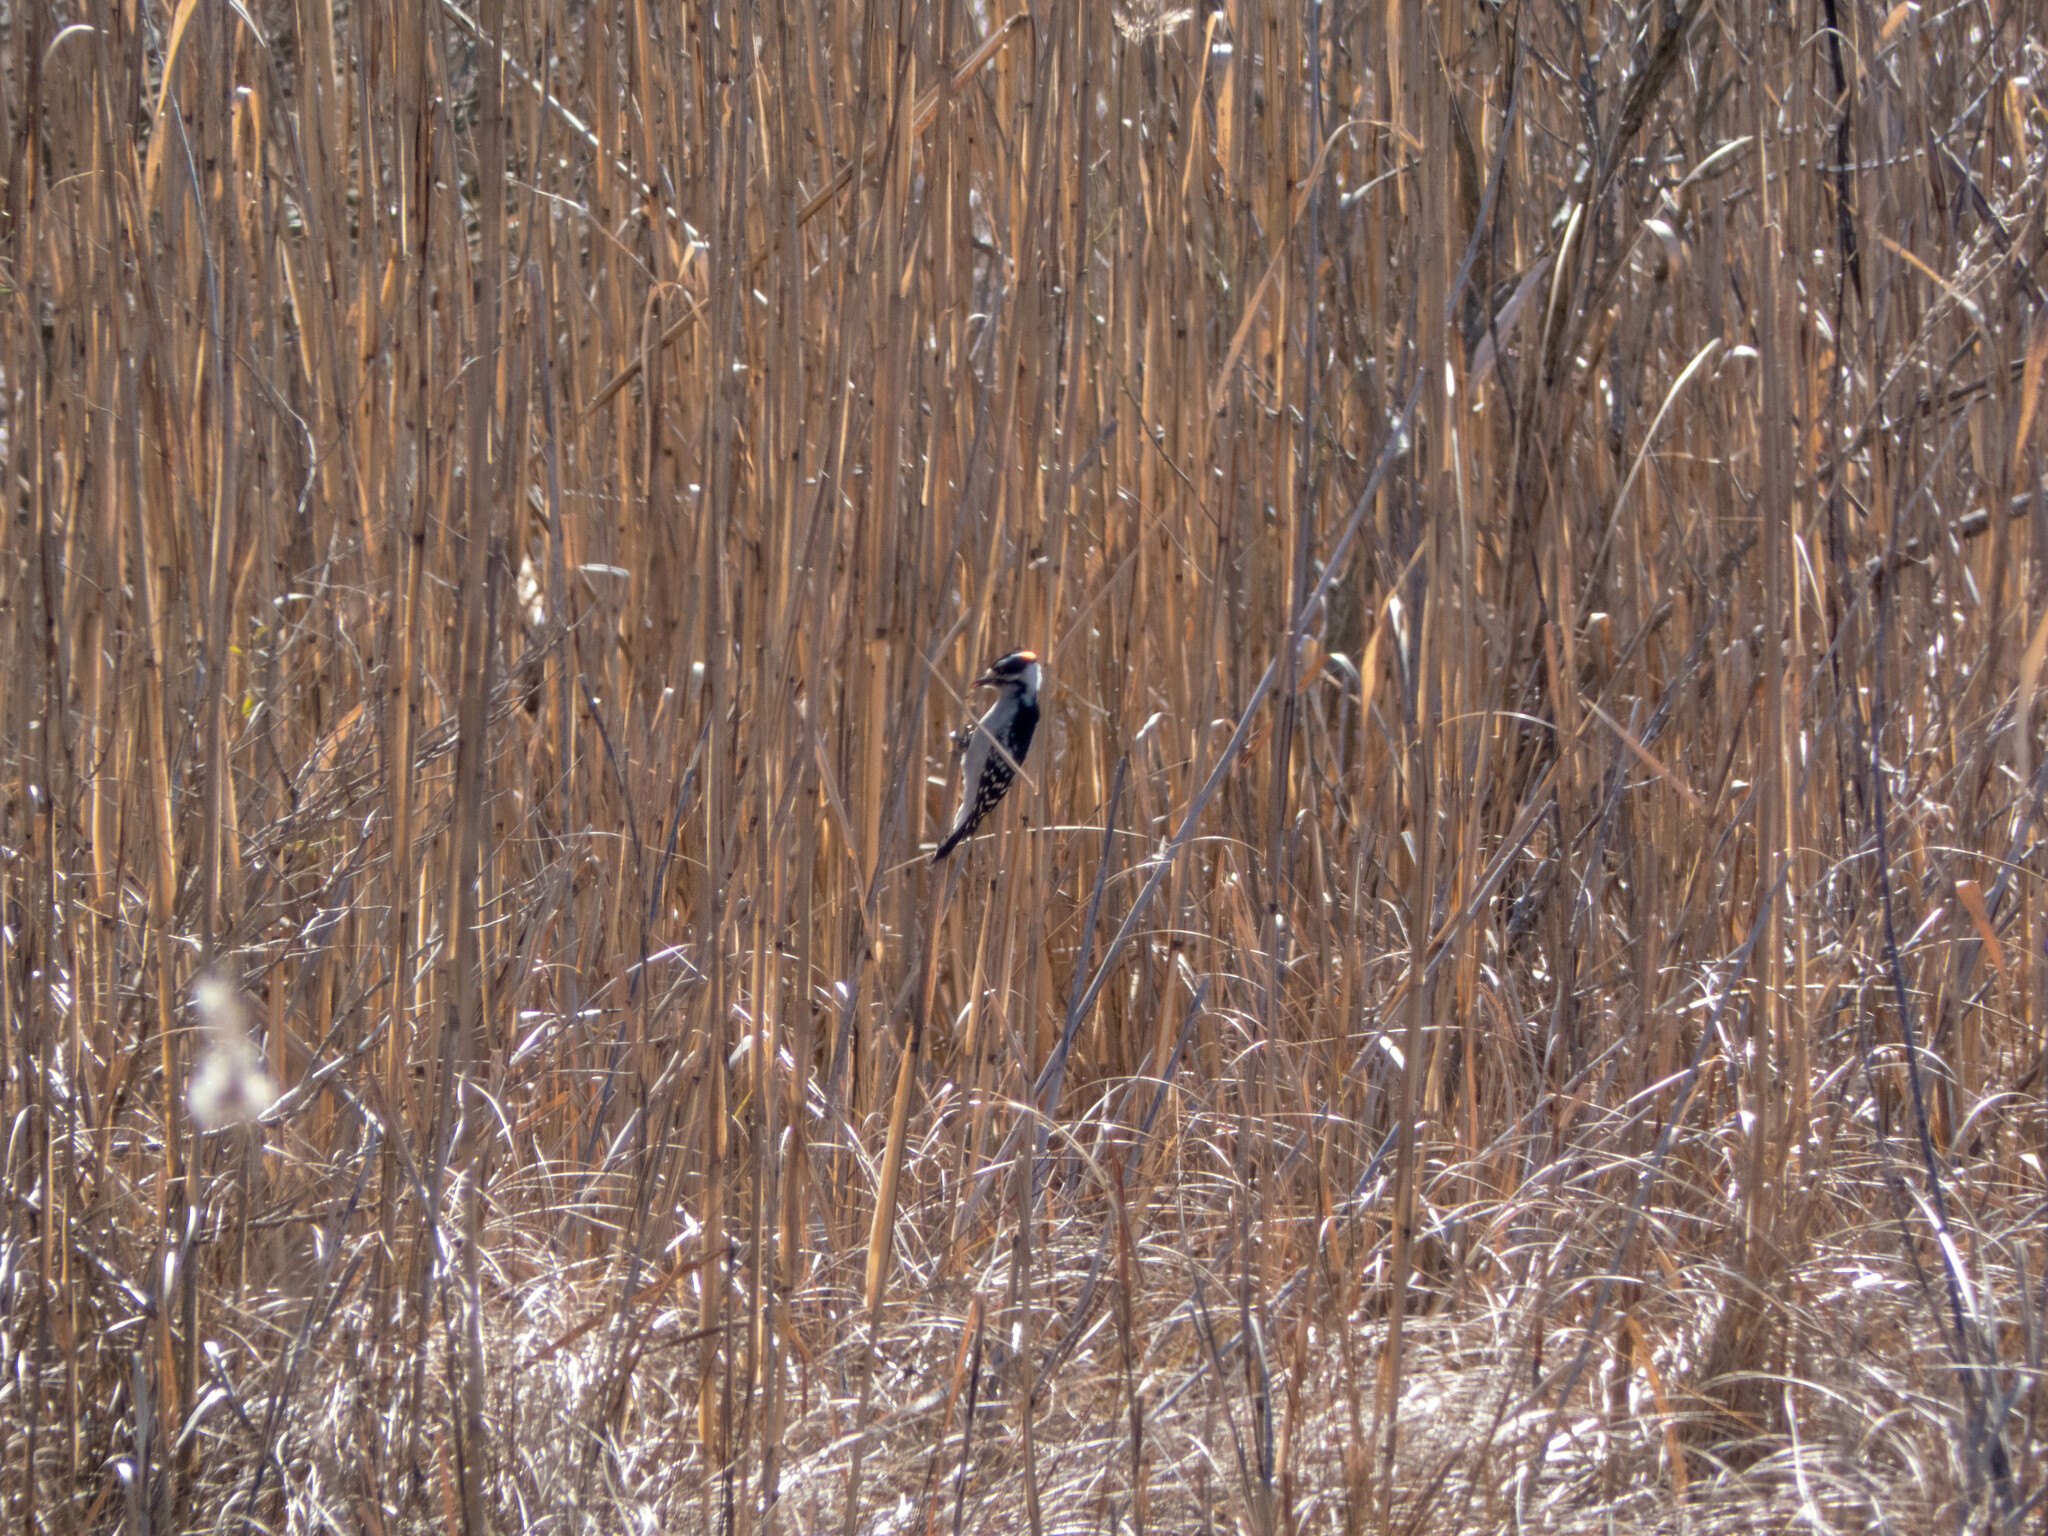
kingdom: Animalia
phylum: Chordata
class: Aves
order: Piciformes
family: Picidae
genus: Dryobates
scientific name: Dryobates pubescens
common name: Downy woodpecker
